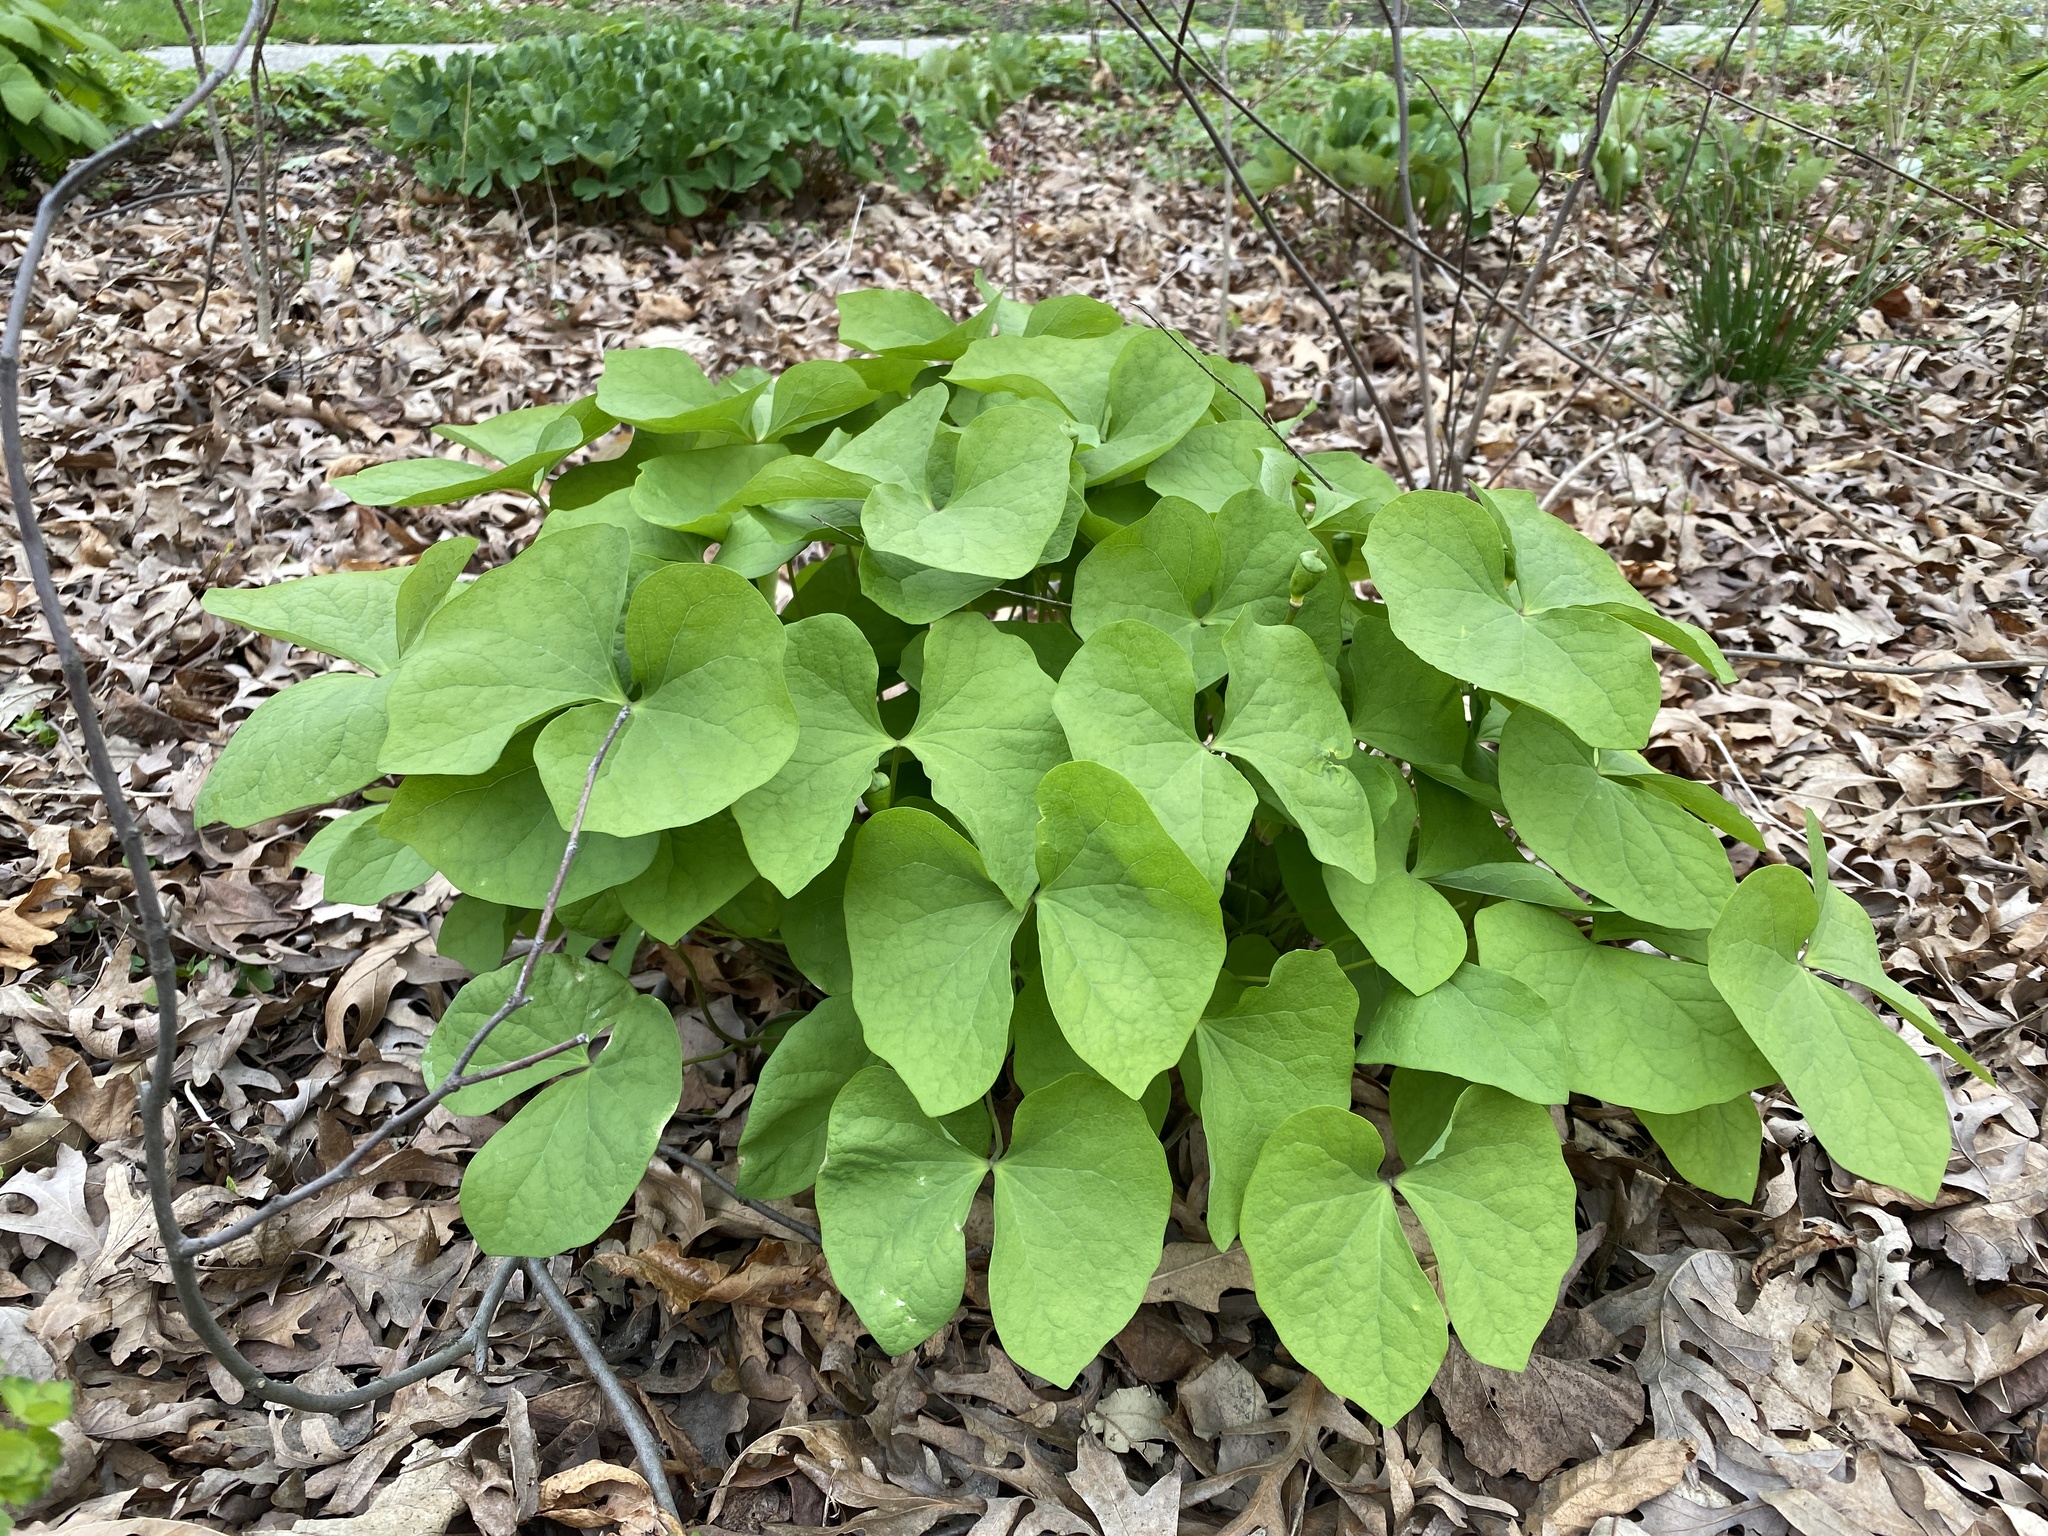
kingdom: Plantae
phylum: Tracheophyta
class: Magnoliopsida
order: Ranunculales
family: Berberidaceae
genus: Jeffersonia
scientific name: Jeffersonia diphylla
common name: Rheumatism-root
